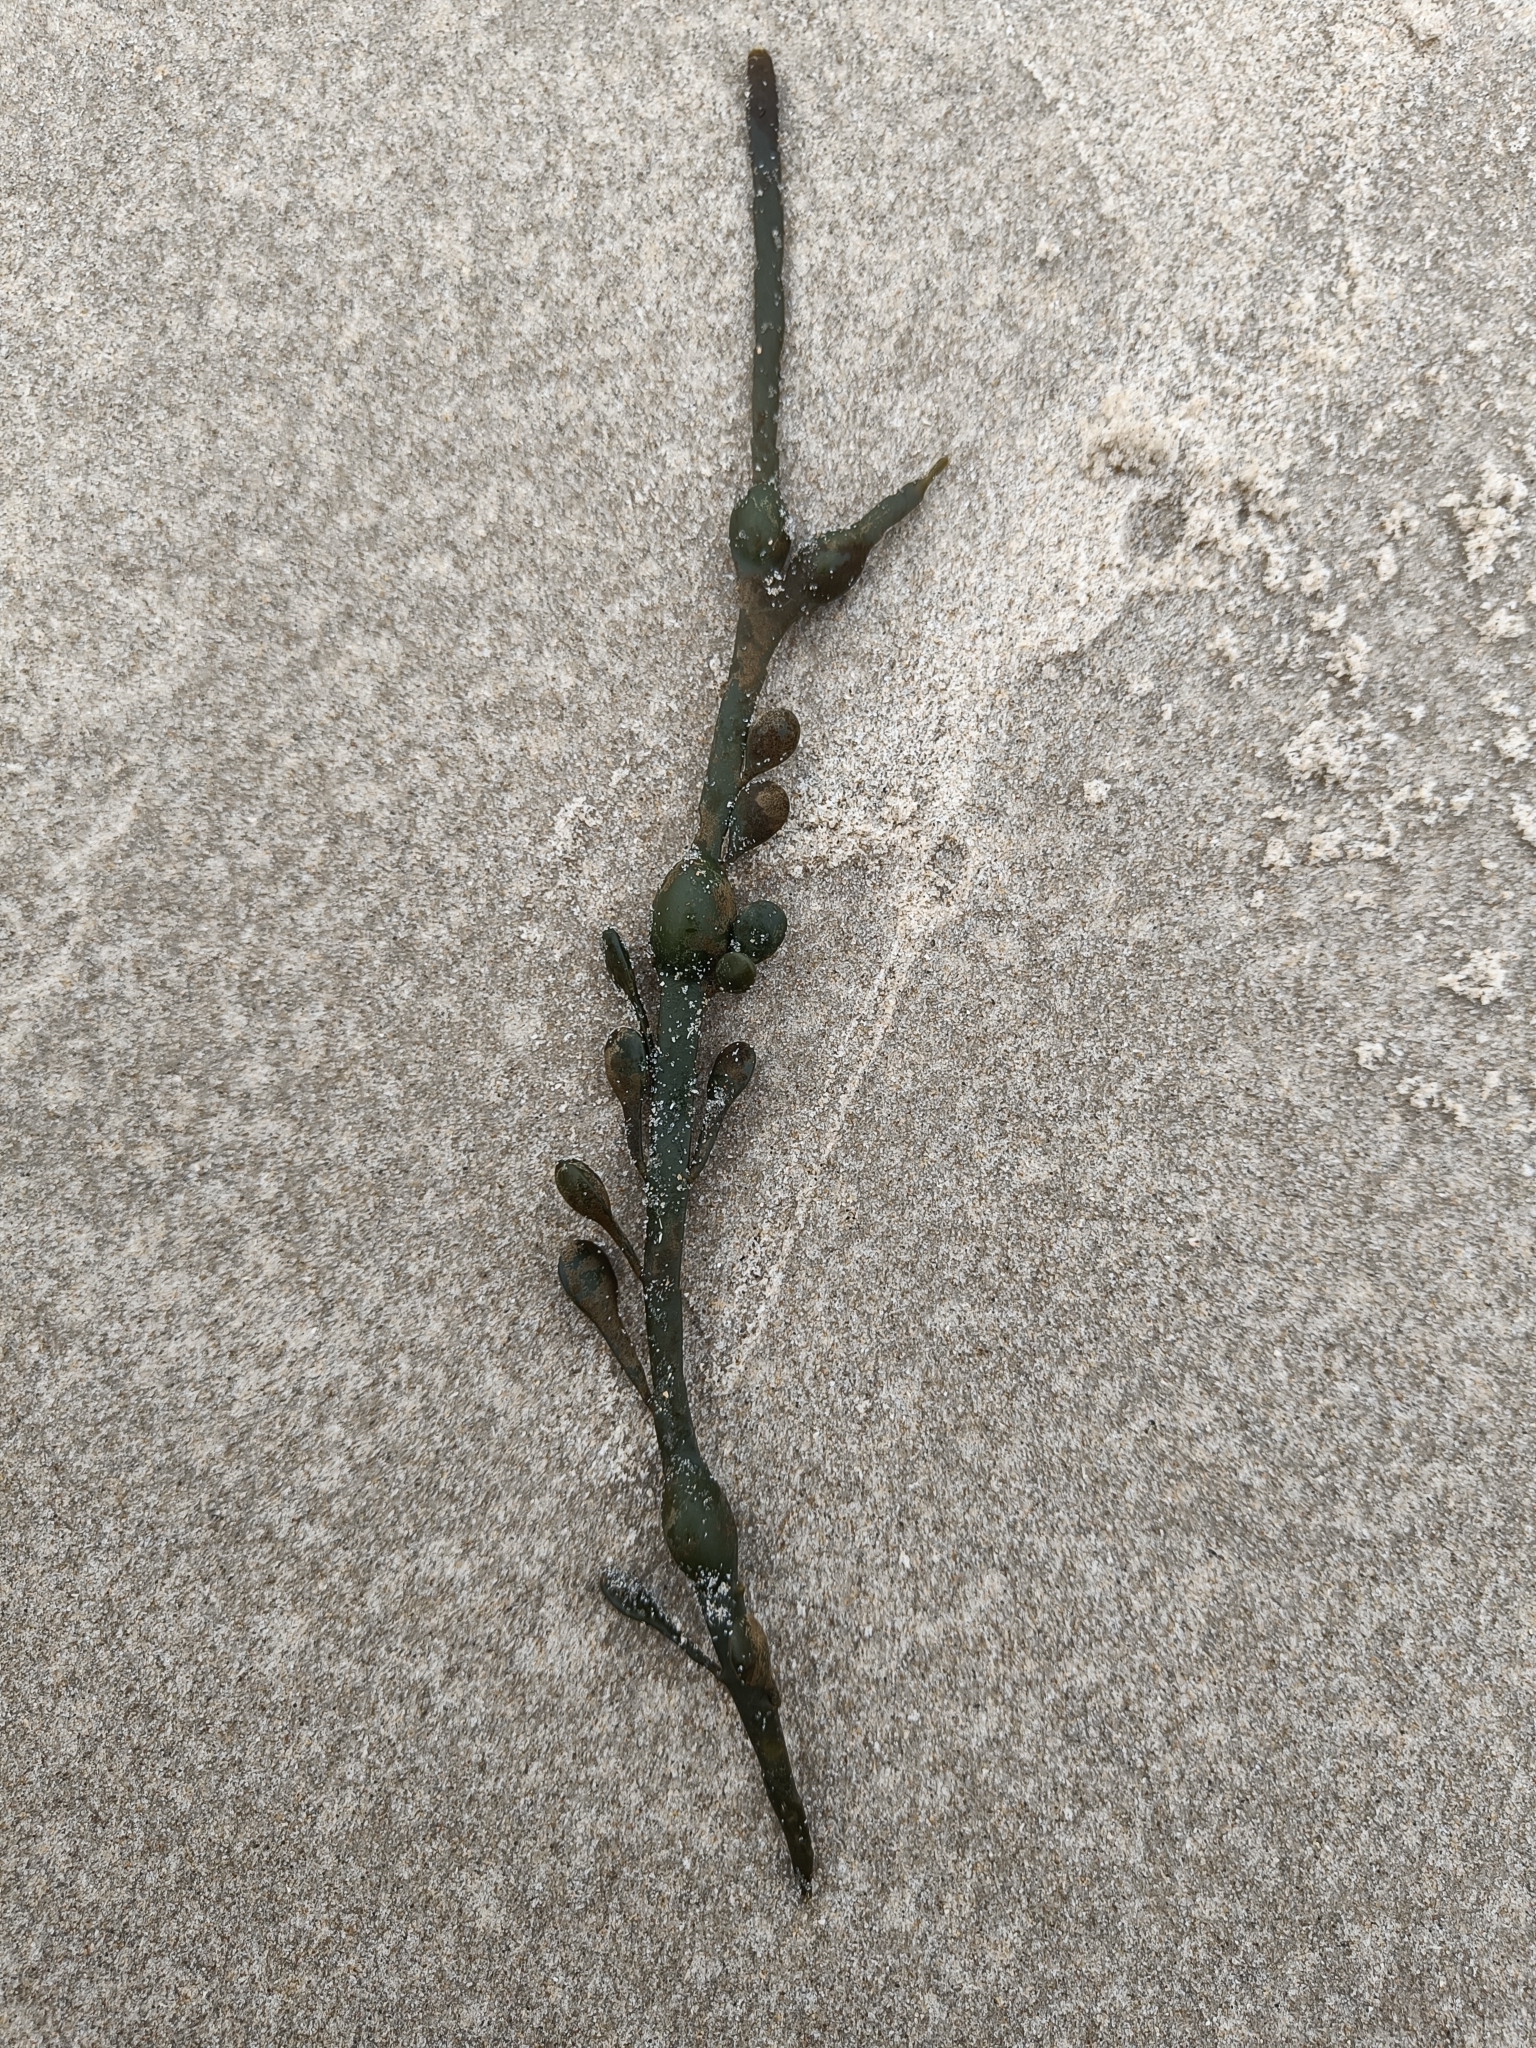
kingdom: Chromista
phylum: Ochrophyta
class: Phaeophyceae
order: Fucales
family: Fucaceae
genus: Ascophyllum
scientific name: Ascophyllum nodosum
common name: Knotted wrack
